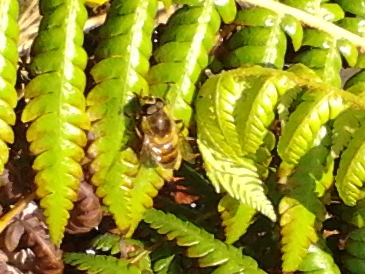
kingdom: Animalia
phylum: Arthropoda
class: Insecta
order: Diptera
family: Syrphidae
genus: Eristalis
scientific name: Eristalis tenax
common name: Drone fly
